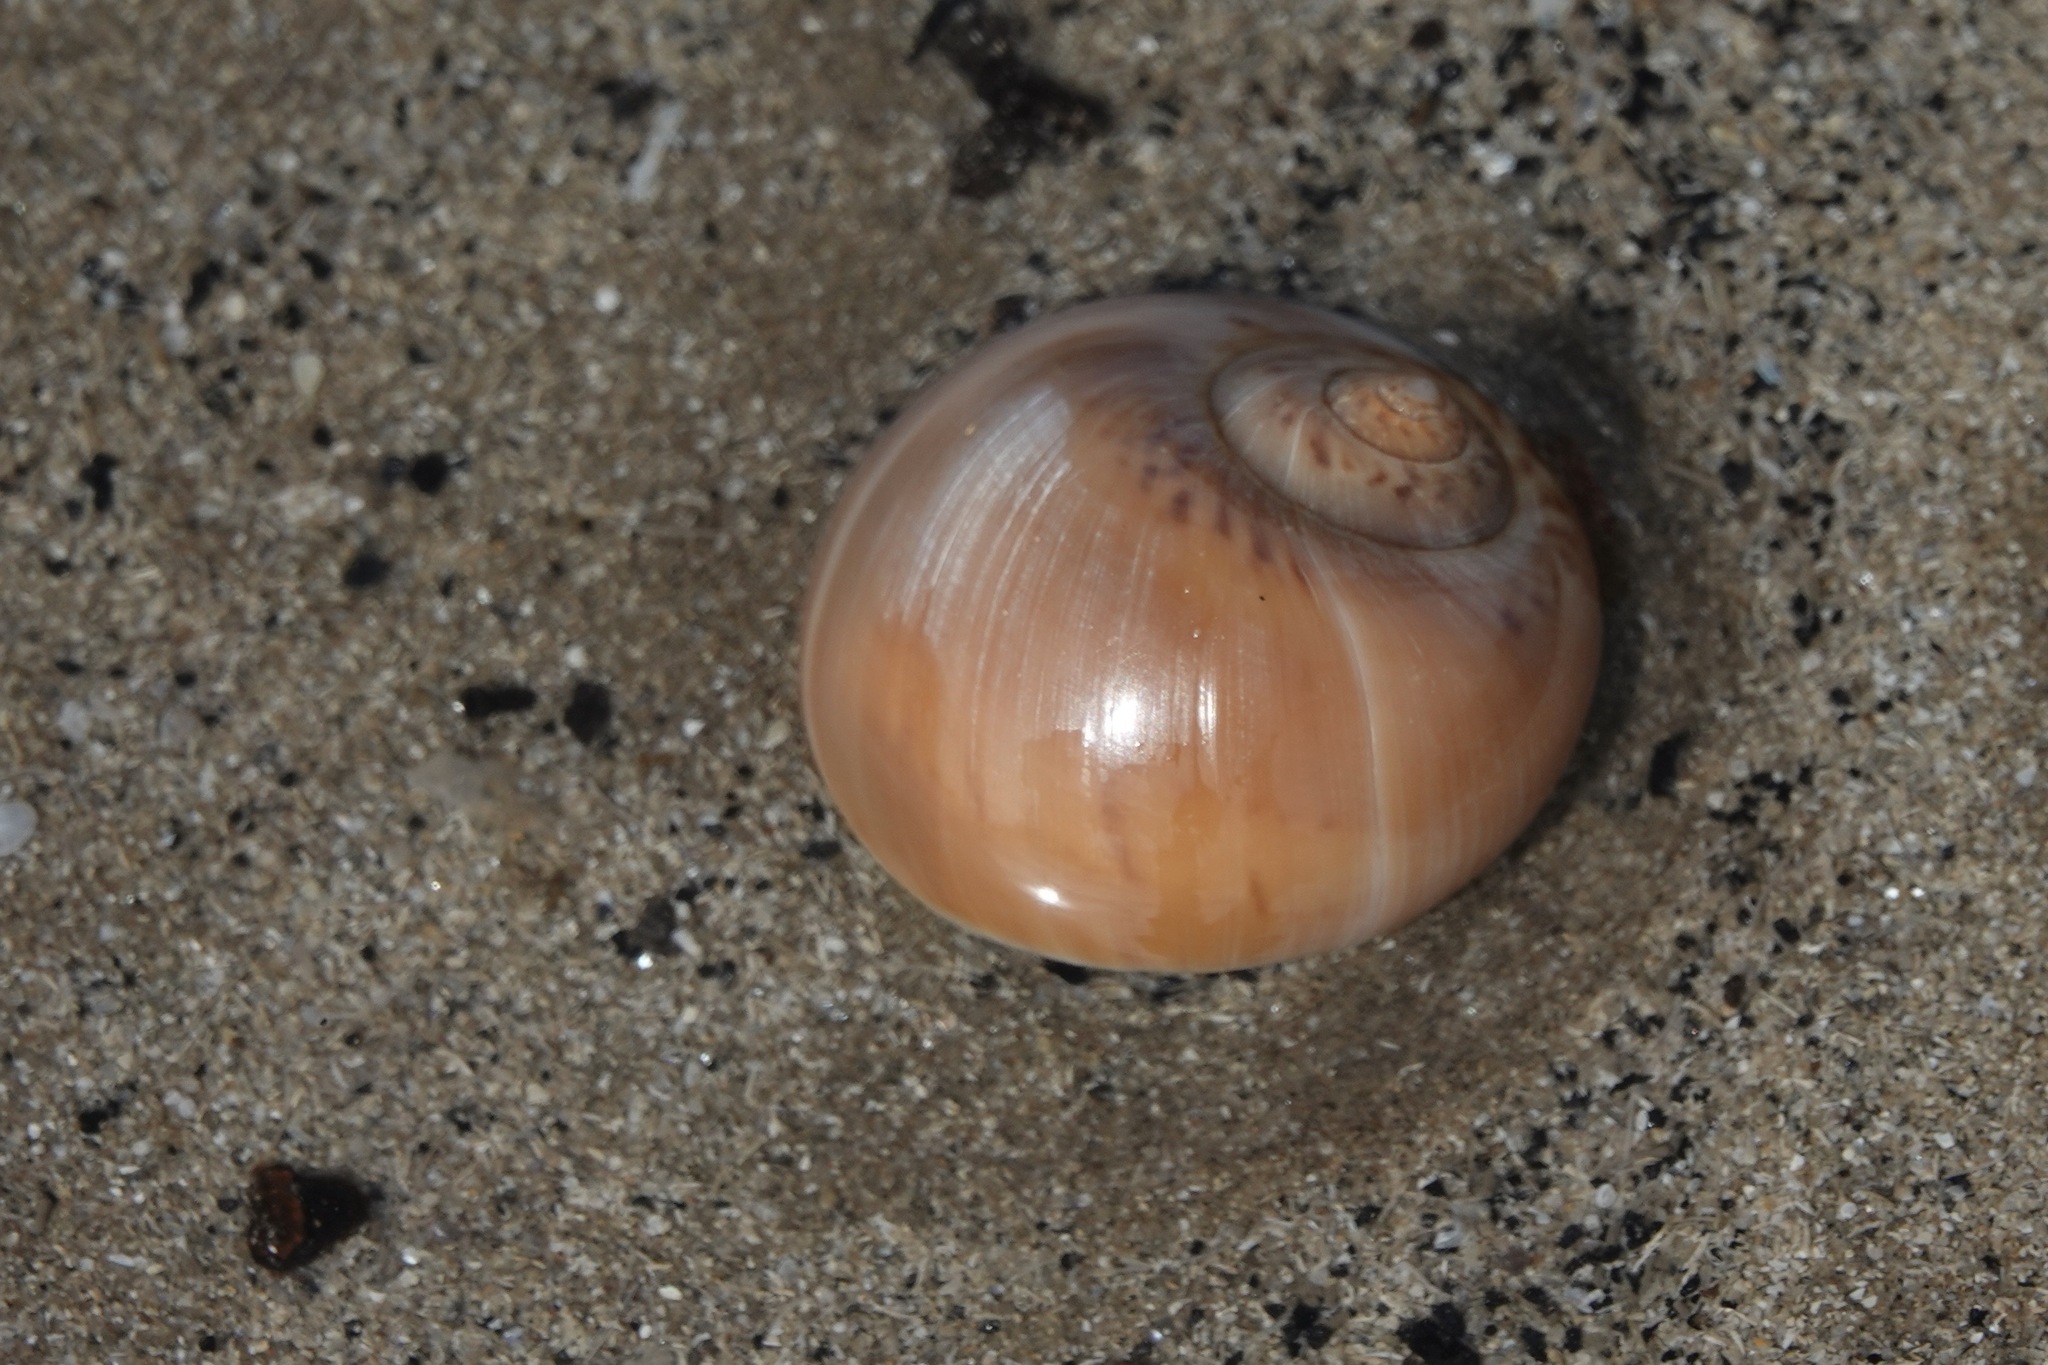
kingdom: Animalia
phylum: Mollusca
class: Gastropoda
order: Littorinimorpha
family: Naticidae
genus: Euspira
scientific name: Euspira catena
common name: Necklace shell
